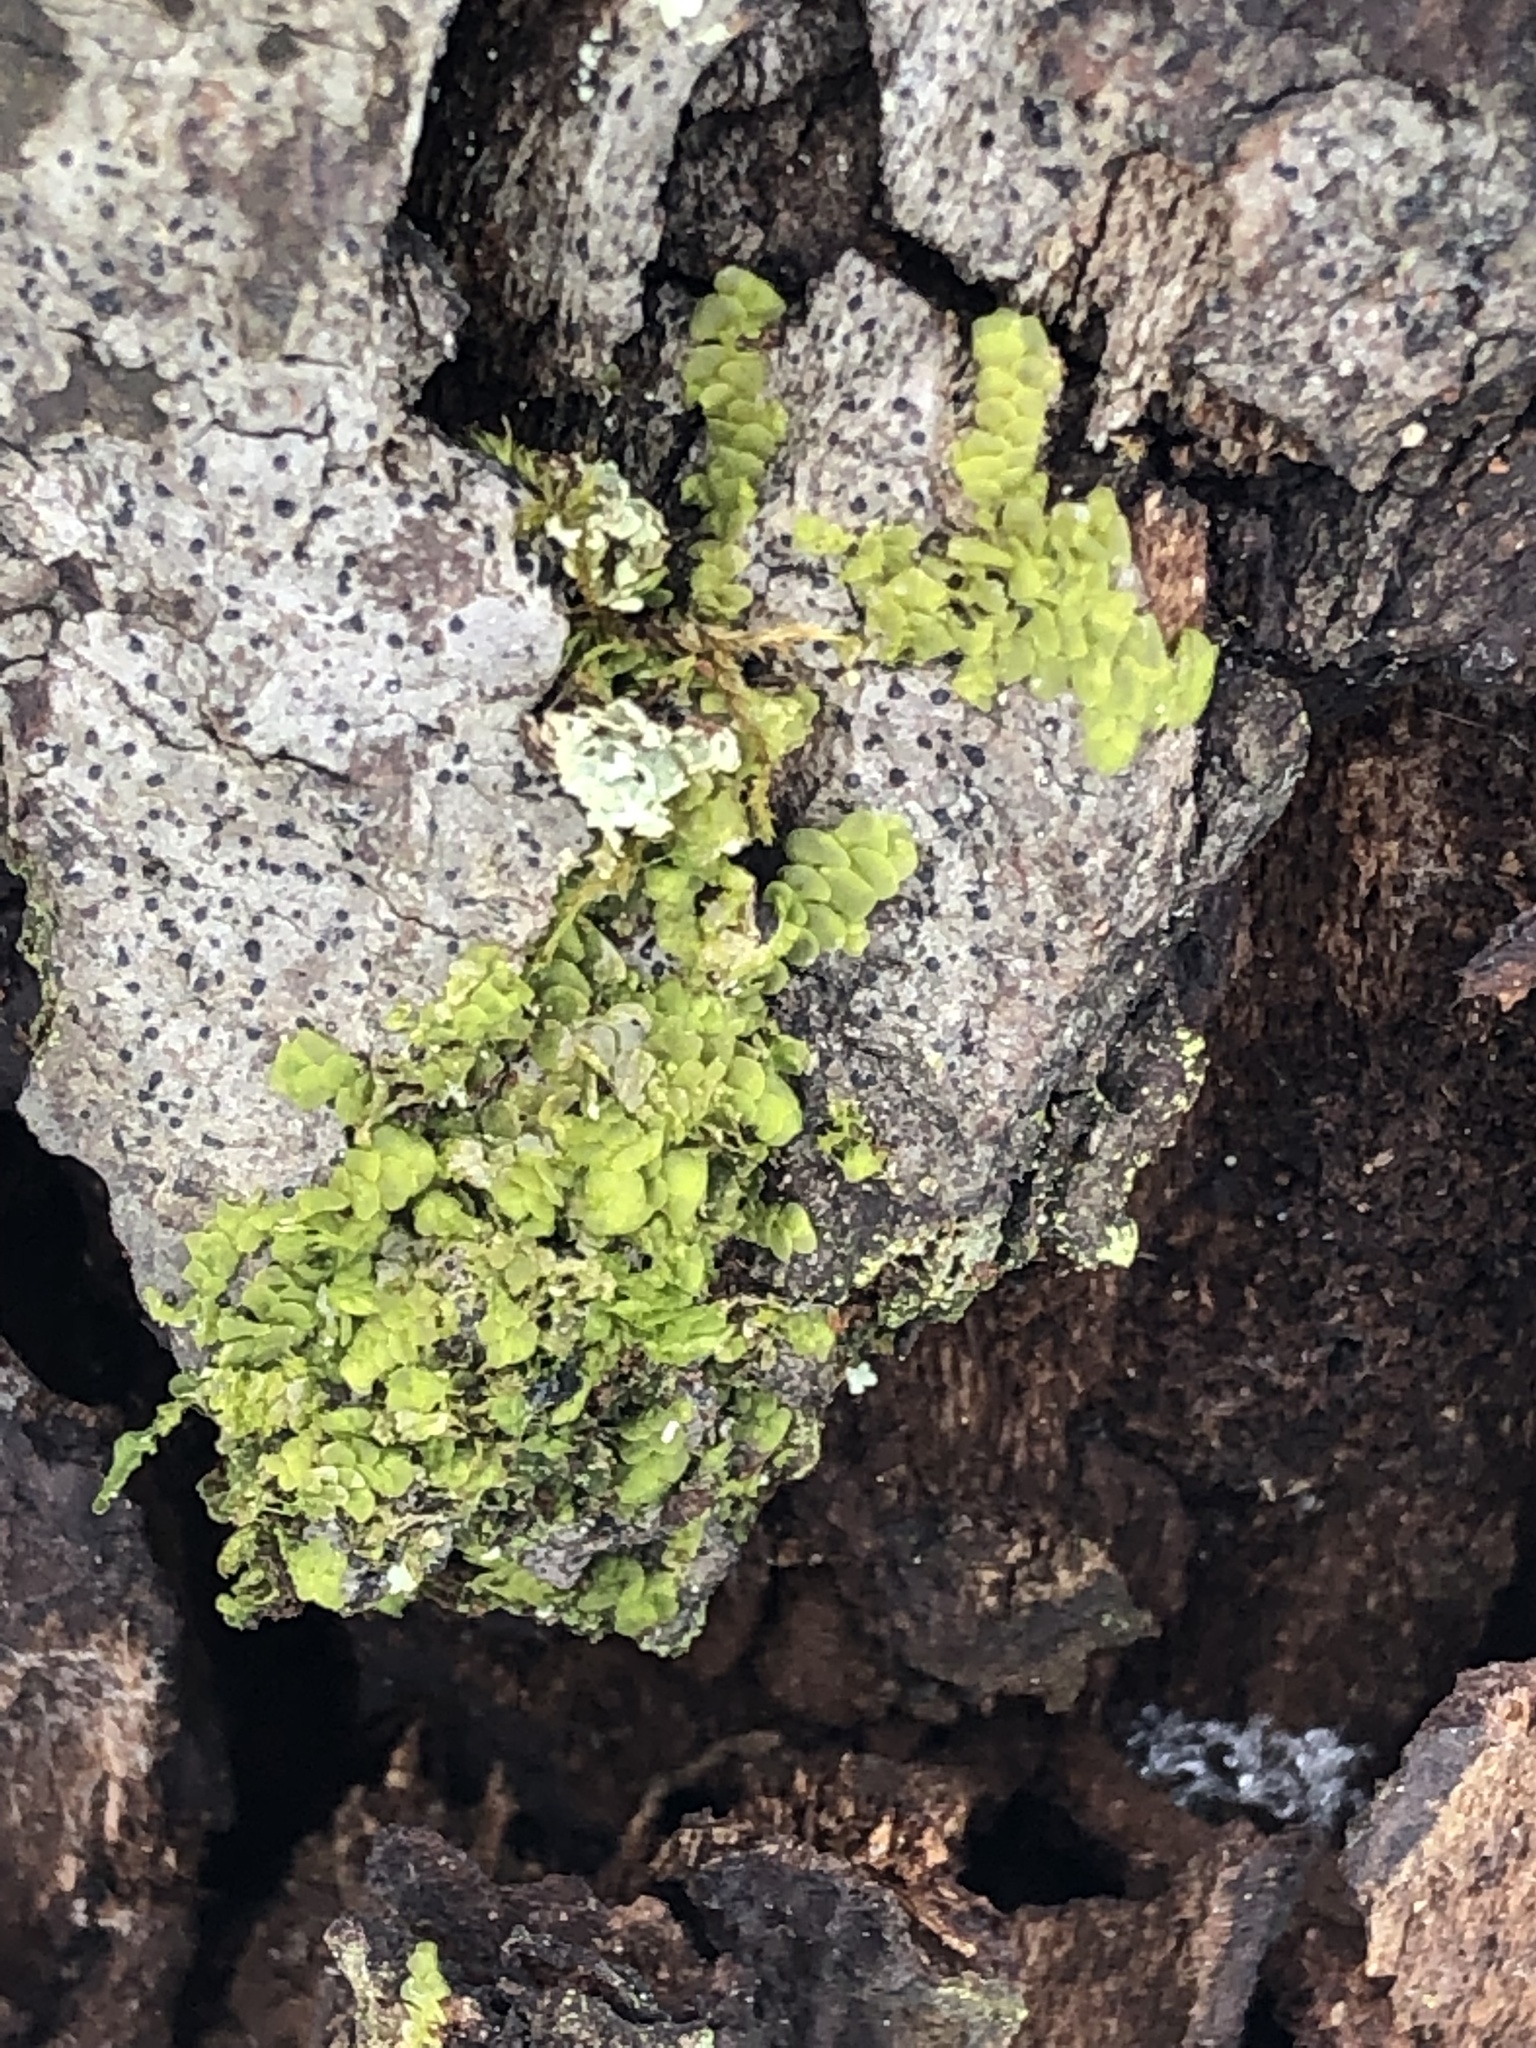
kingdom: Plantae
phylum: Marchantiophyta
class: Jungermanniopsida
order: Porellales
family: Radulaceae
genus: Radula
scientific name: Radula complanata
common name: Flat-leaved scalewort
